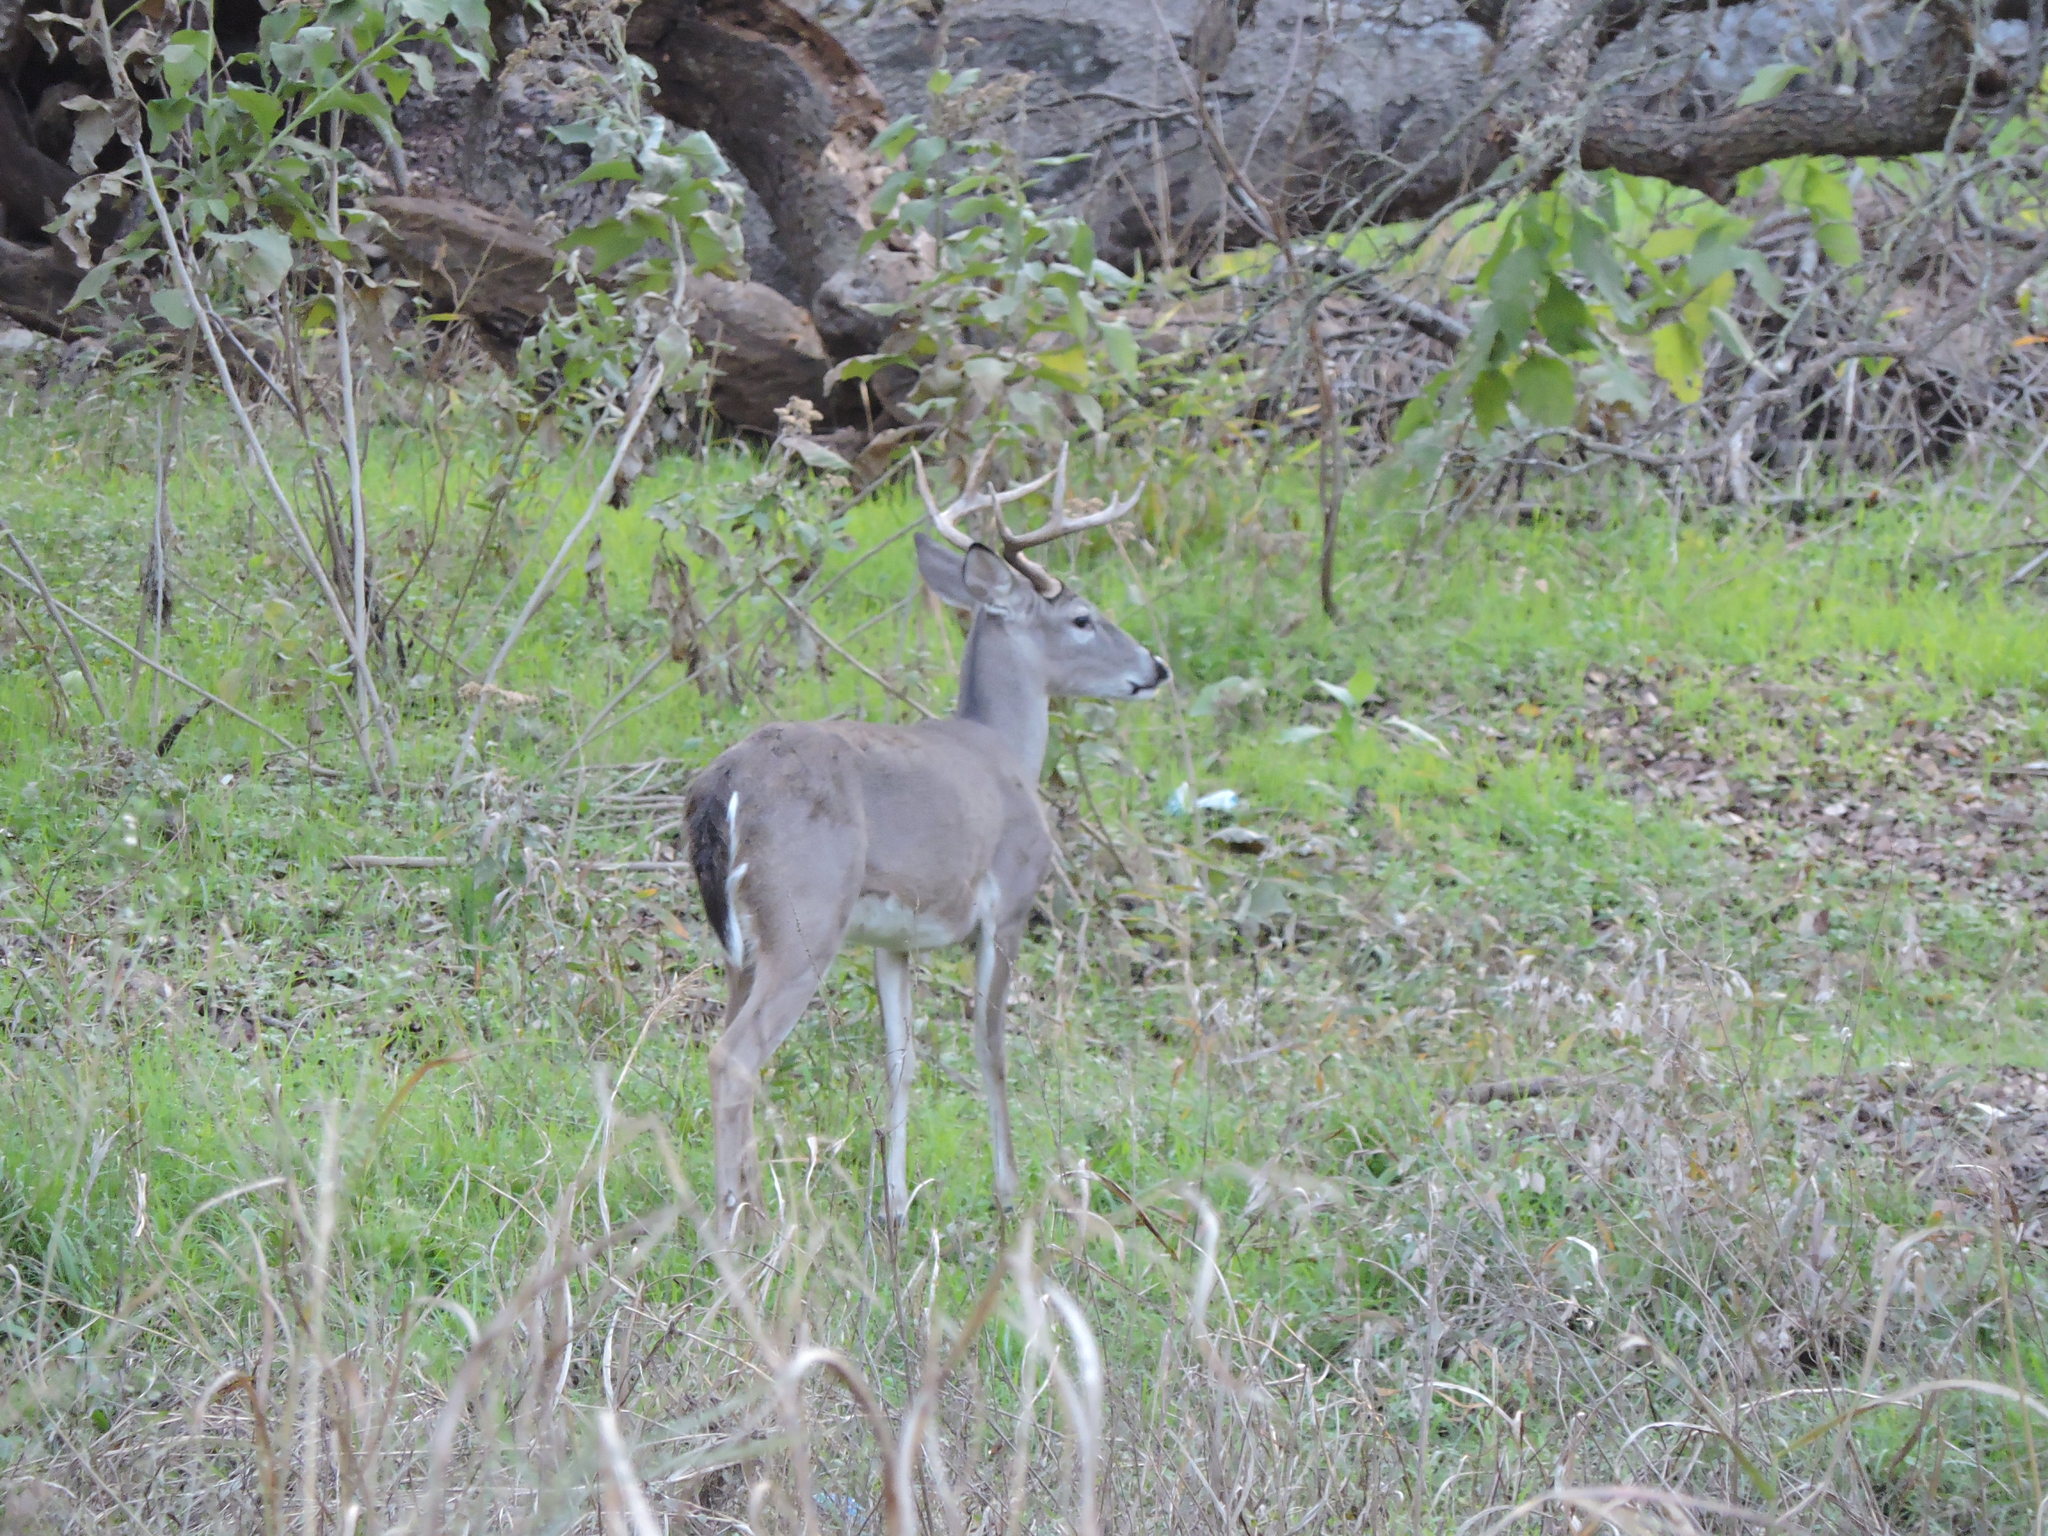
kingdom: Animalia
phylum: Chordata
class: Mammalia
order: Artiodactyla
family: Cervidae
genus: Odocoileus
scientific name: Odocoileus virginianus
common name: White-tailed deer
